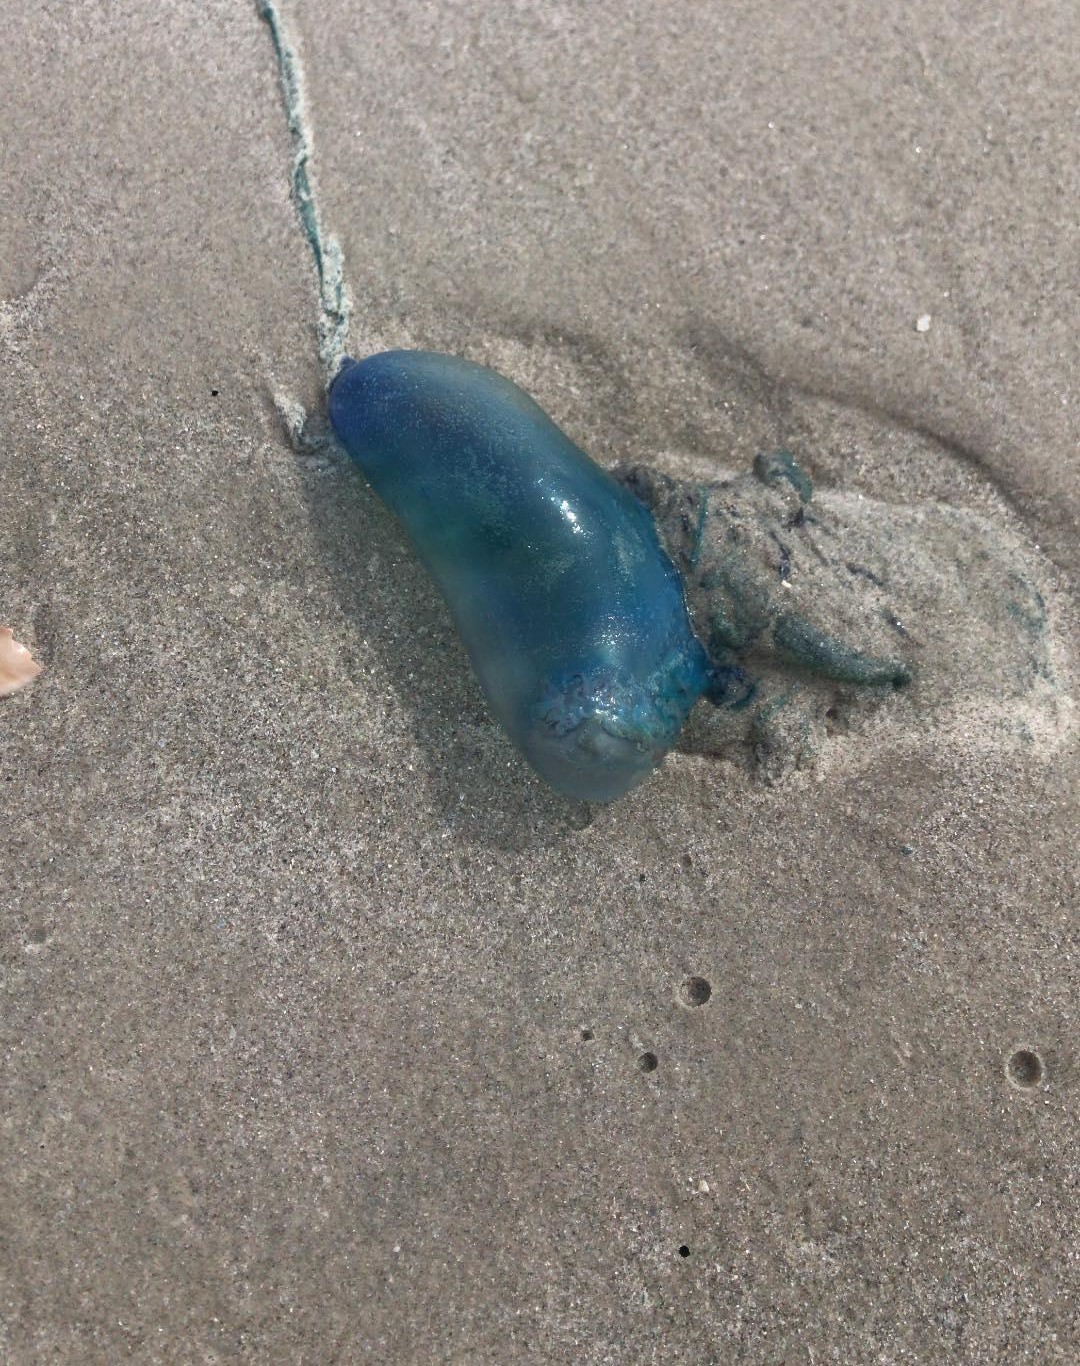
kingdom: Animalia
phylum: Cnidaria
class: Hydrozoa
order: Siphonophorae
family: Physaliidae
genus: Physalia
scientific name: Physalia physalis
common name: Portuguese man-of-war
